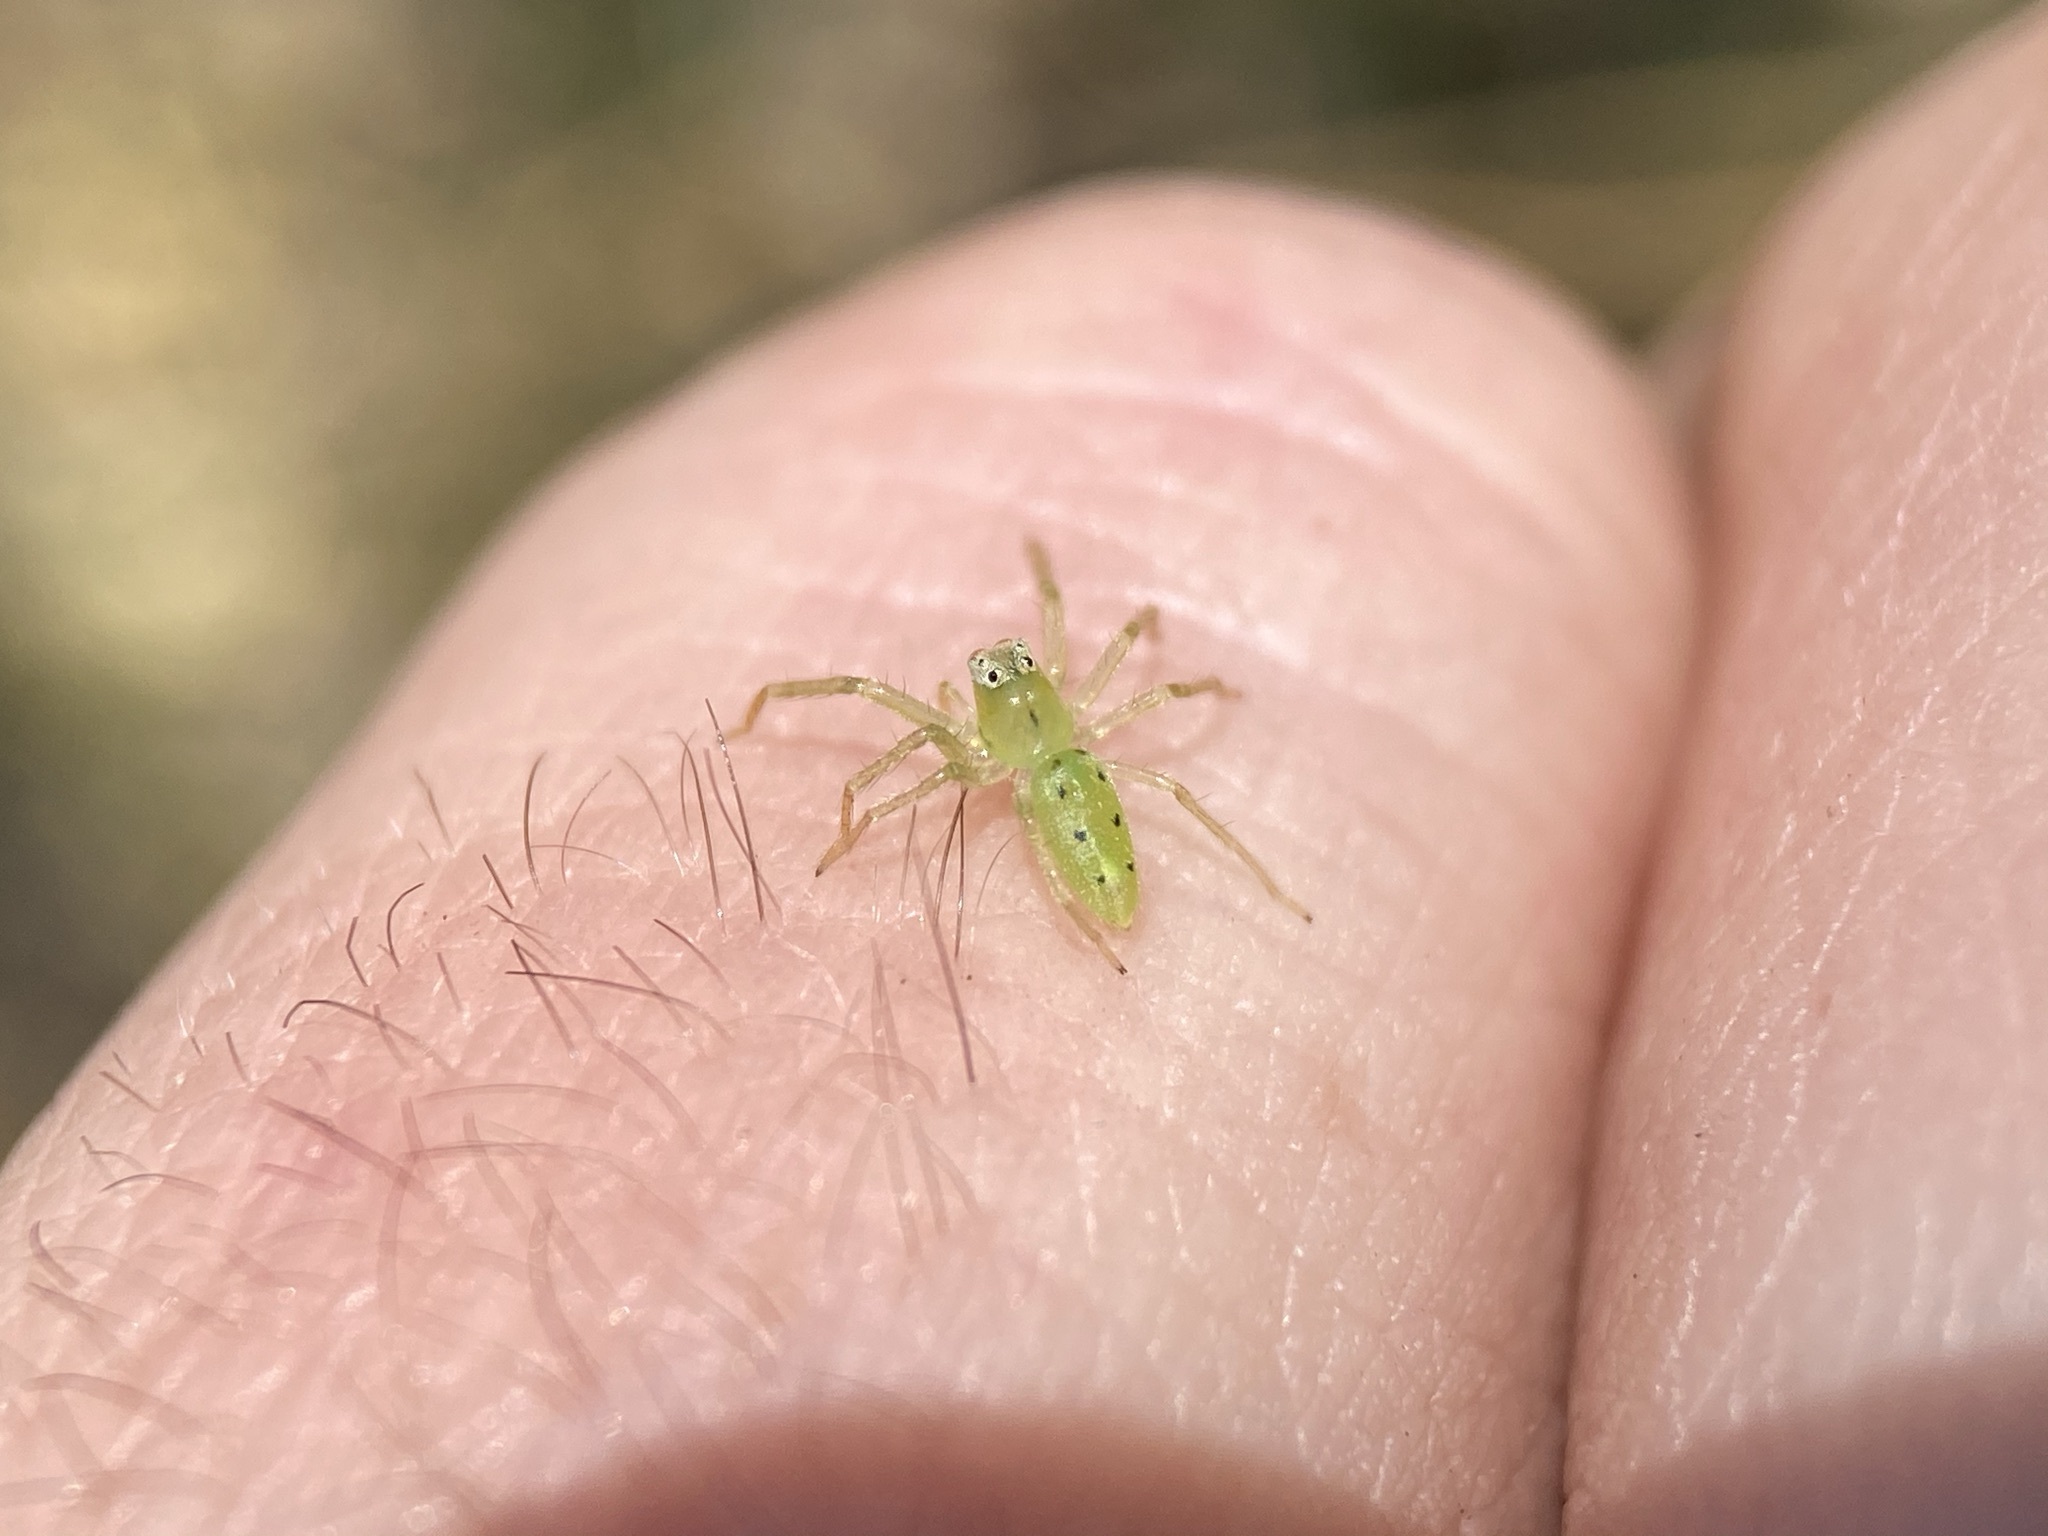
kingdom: Animalia
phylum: Arthropoda
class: Arachnida
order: Araneae
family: Salticidae
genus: Lyssomanes
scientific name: Lyssomanes viridis
